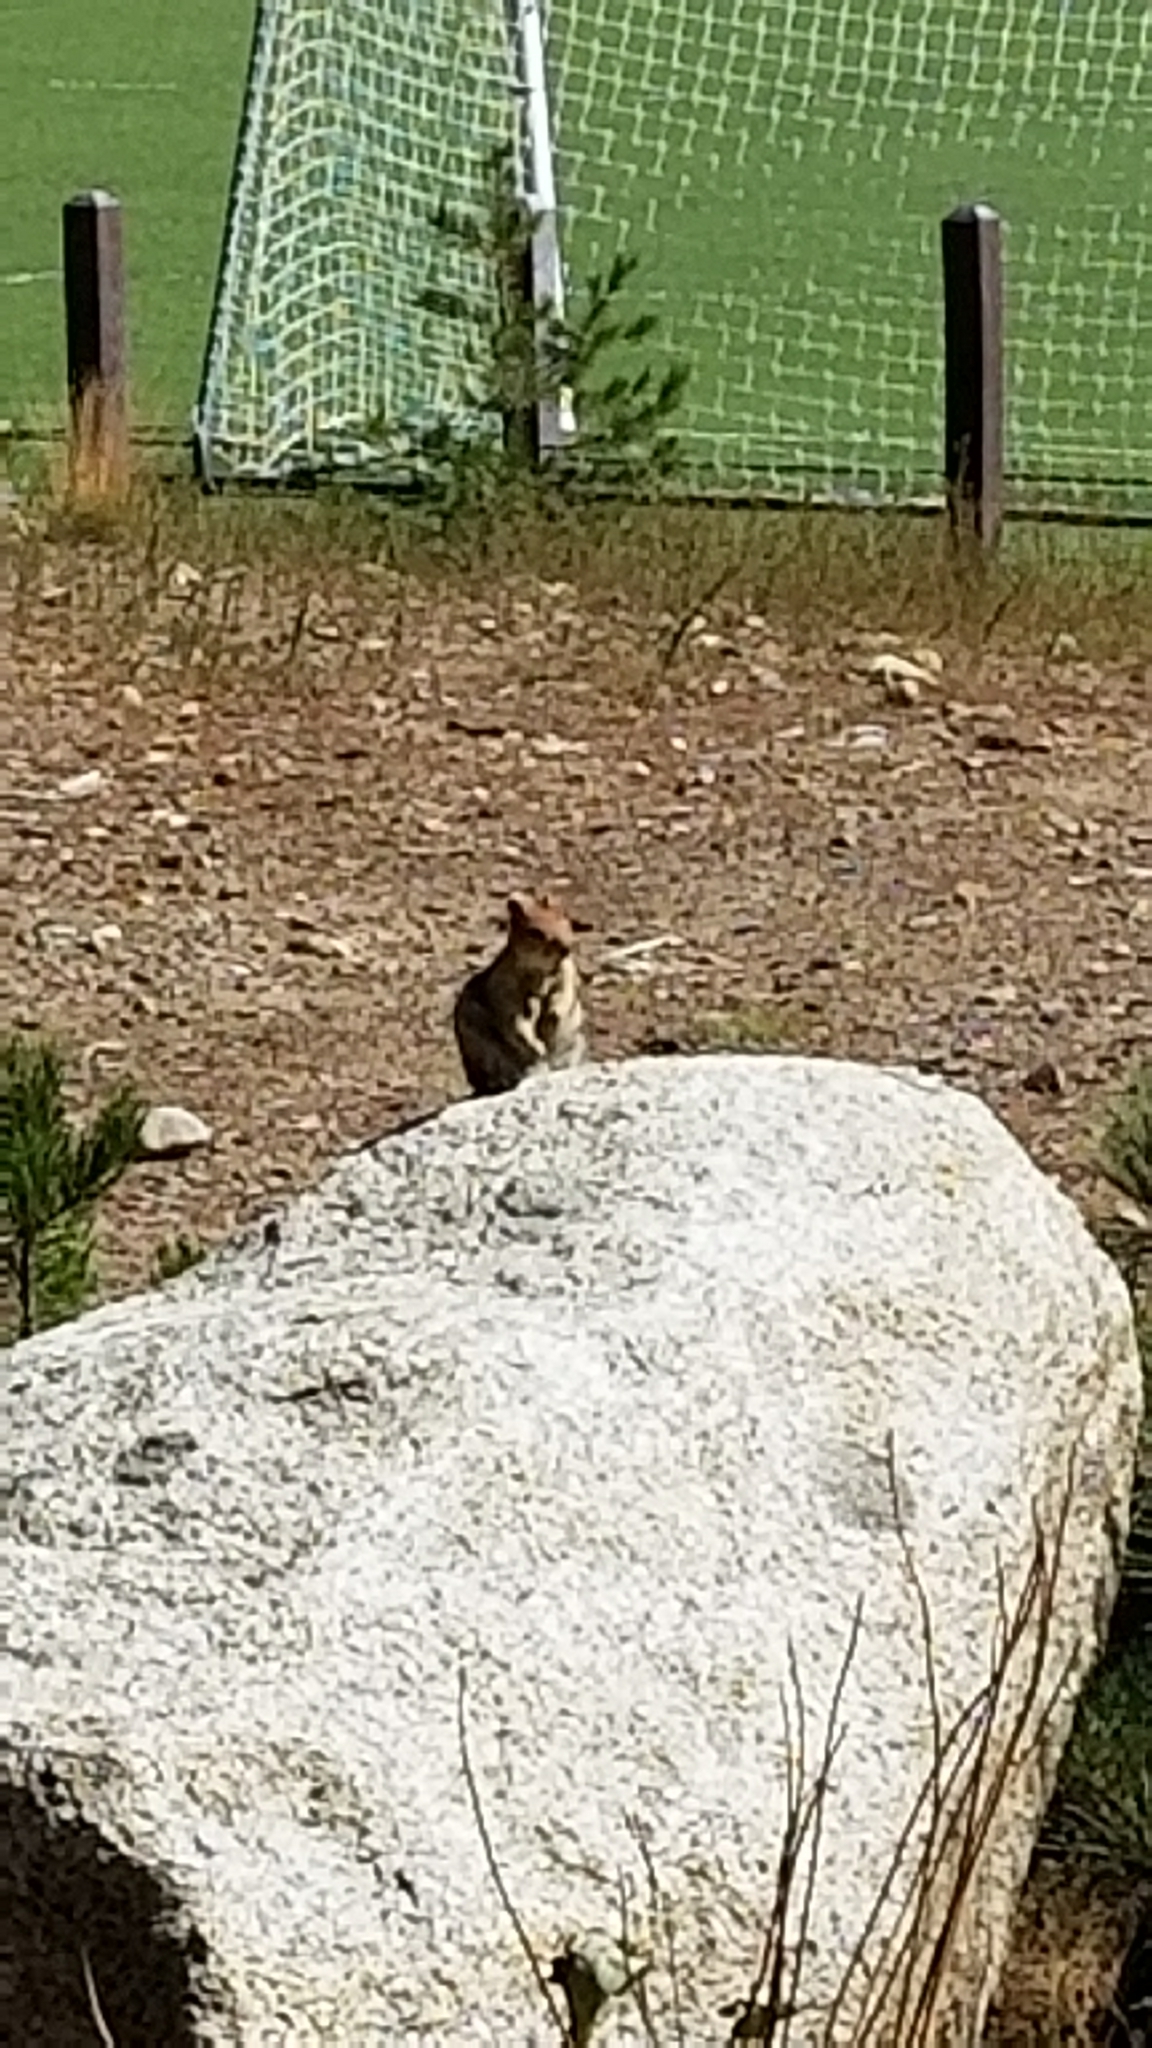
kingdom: Animalia
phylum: Chordata
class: Mammalia
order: Rodentia
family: Sciuridae
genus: Otospermophilus
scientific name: Otospermophilus beecheyi
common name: California ground squirrel
